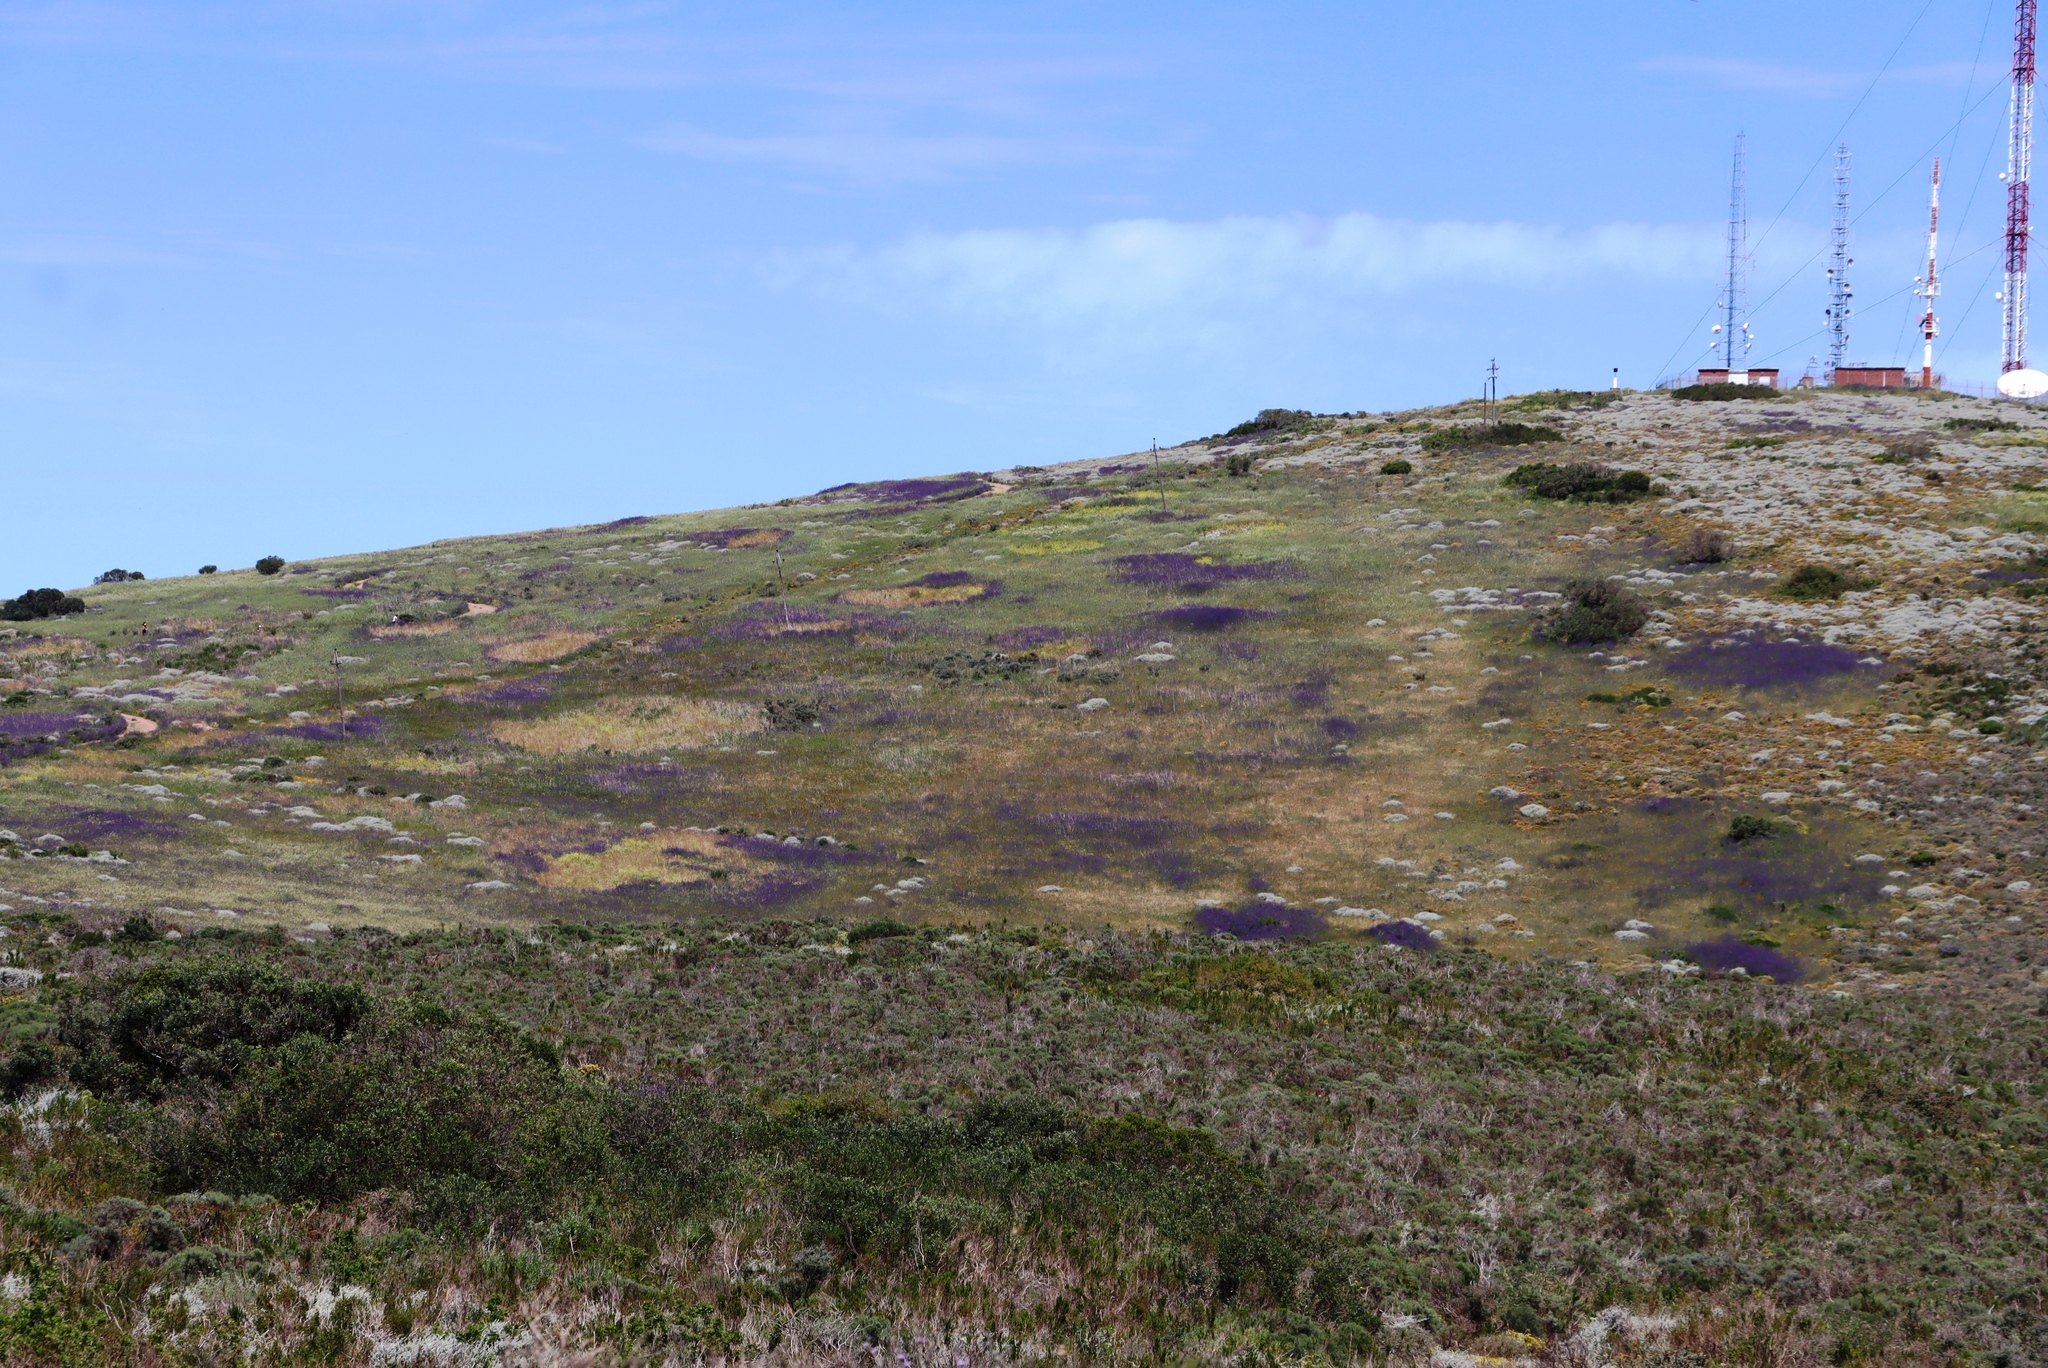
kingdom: Plantae
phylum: Tracheophyta
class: Magnoliopsida
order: Boraginales
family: Boraginaceae
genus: Echium
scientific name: Echium plantagineum
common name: Purple viper's-bugloss
